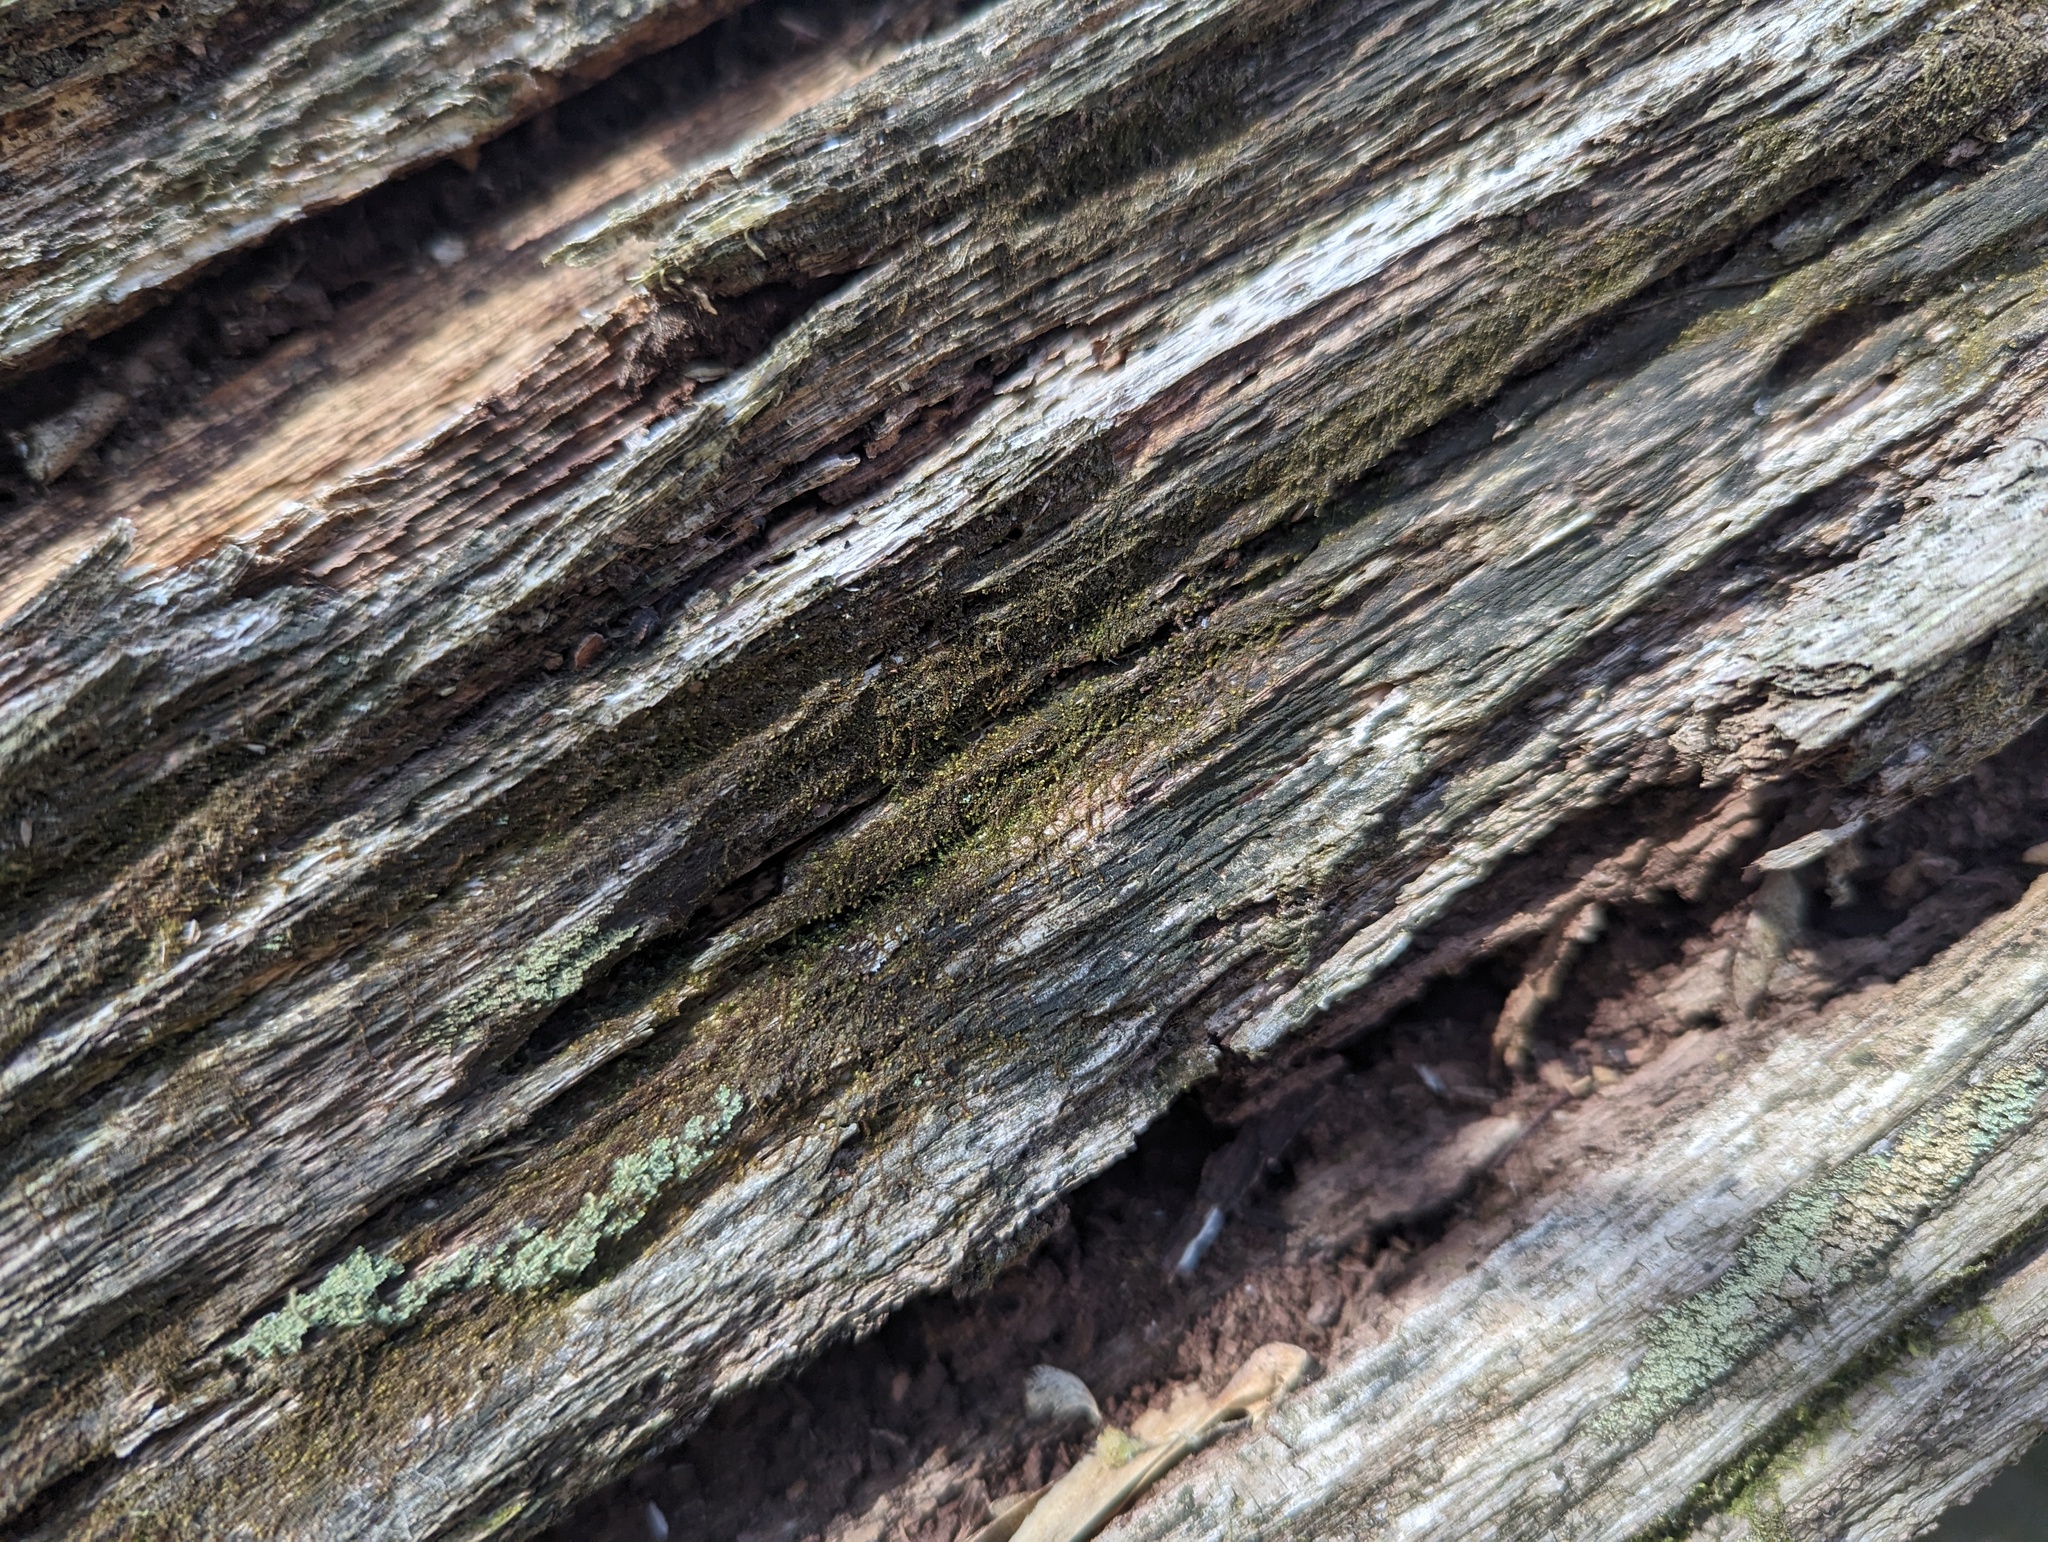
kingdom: Plantae
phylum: Marchantiophyta
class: Jungermanniopsida
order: Jungermanniales
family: Cephaloziaceae
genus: Nowellia
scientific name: Nowellia curvifolia
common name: Wood rustwort
